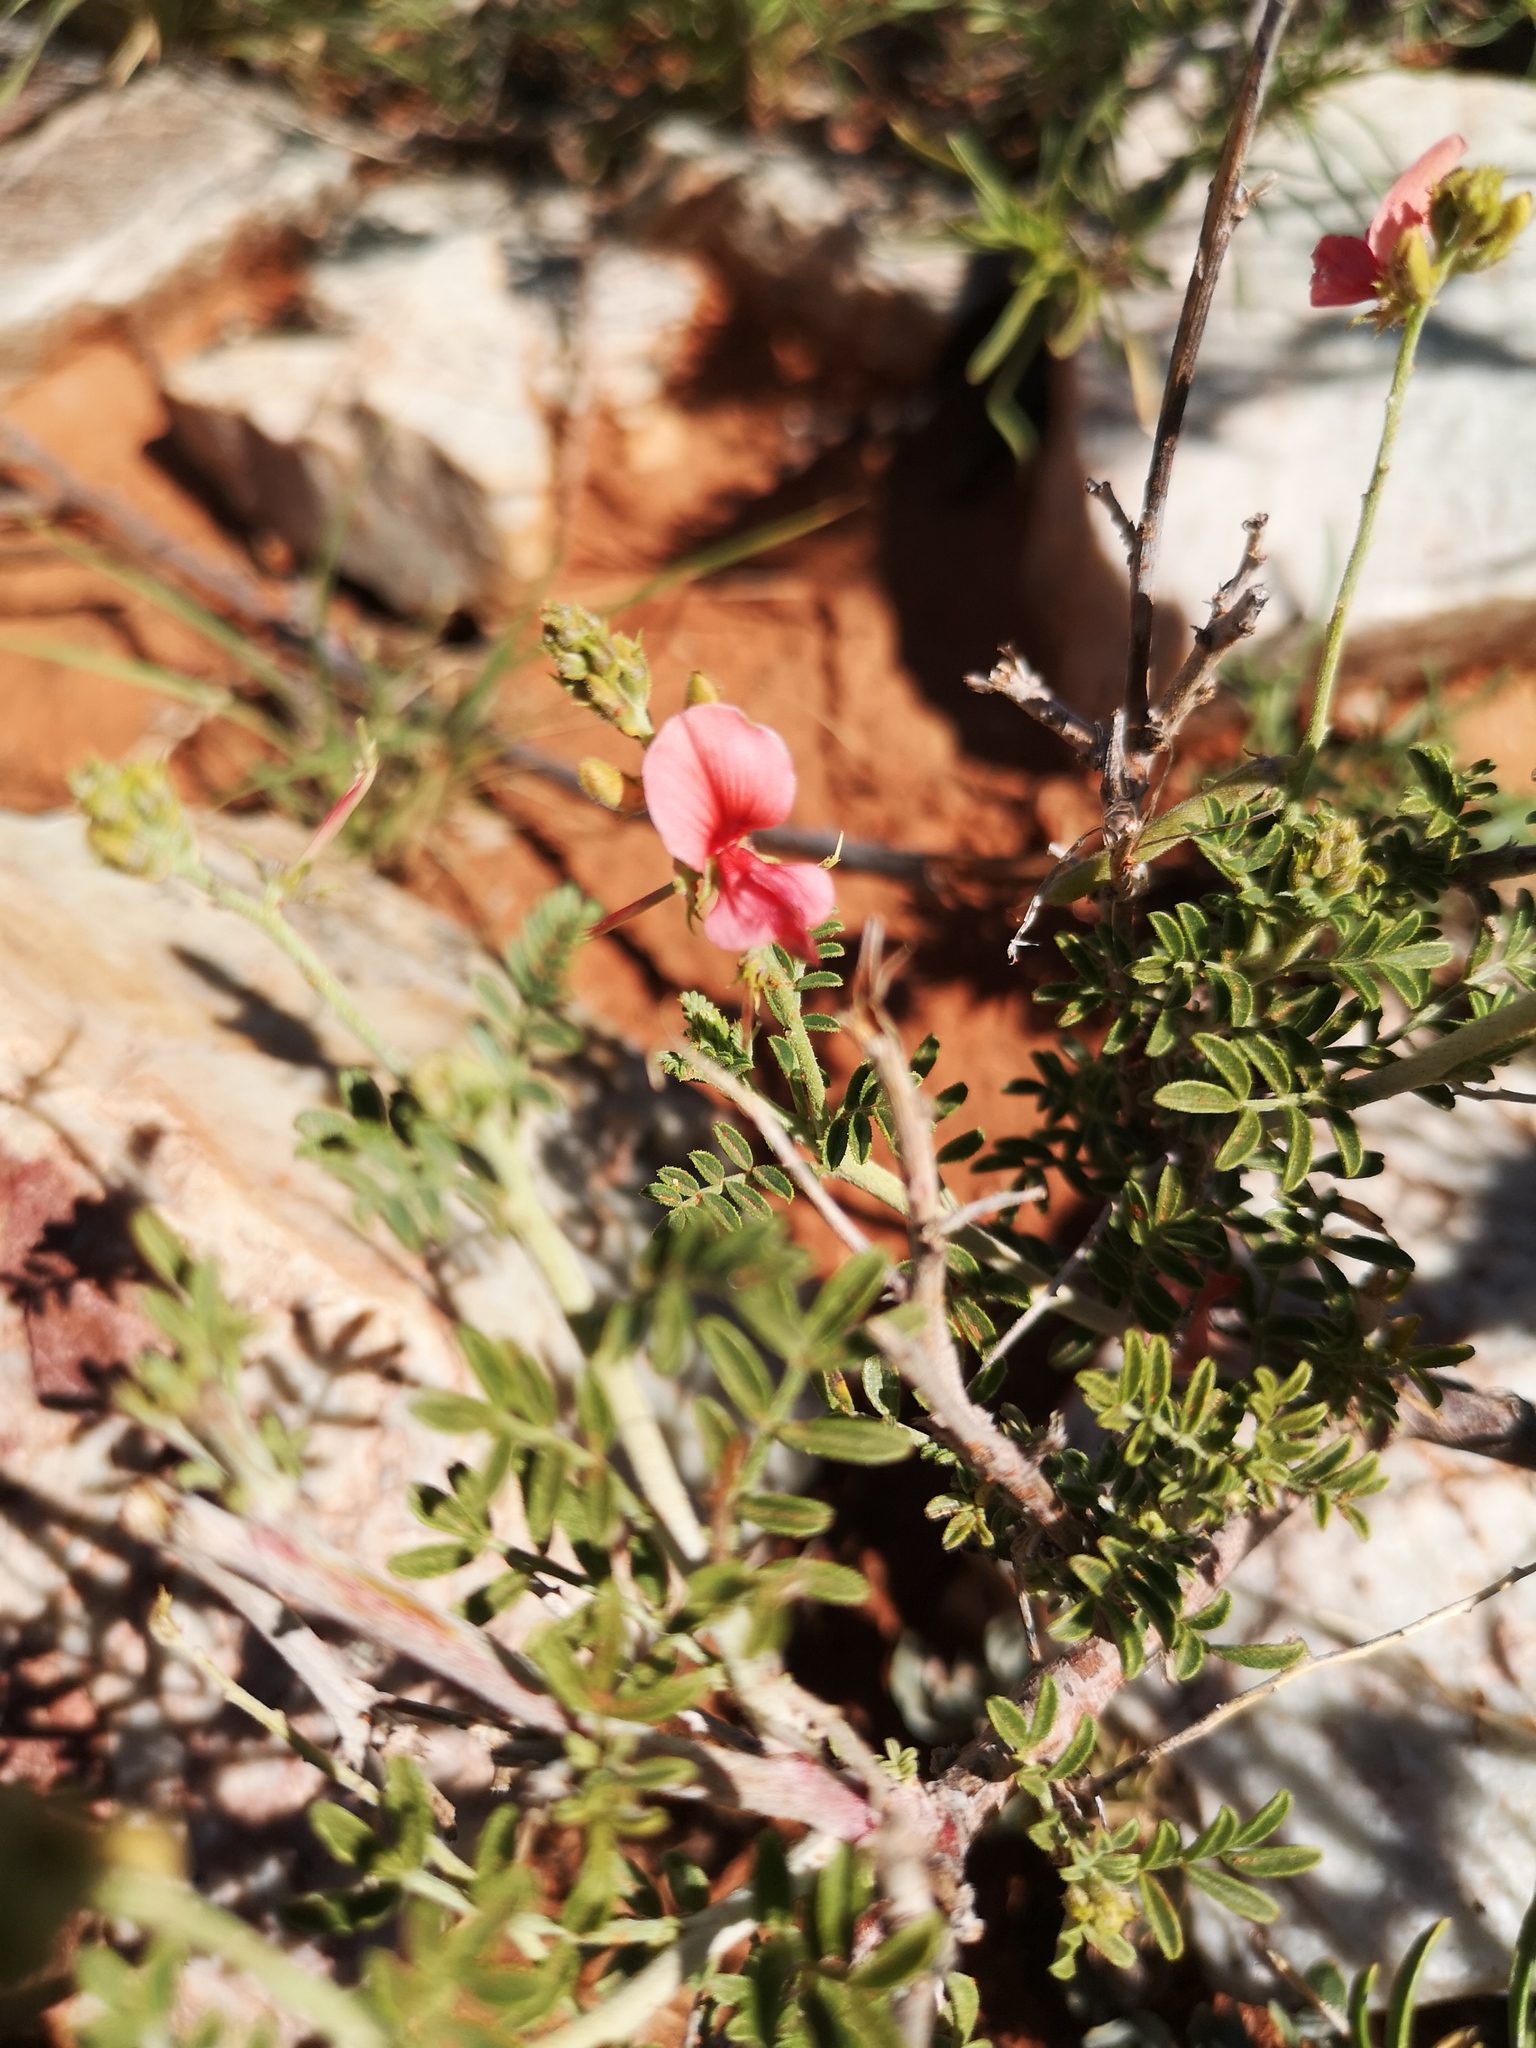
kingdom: Plantae
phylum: Tracheophyta
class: Magnoliopsida
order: Fabales
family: Fabaceae
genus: Indigofera
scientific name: Indigofera heterotricha
